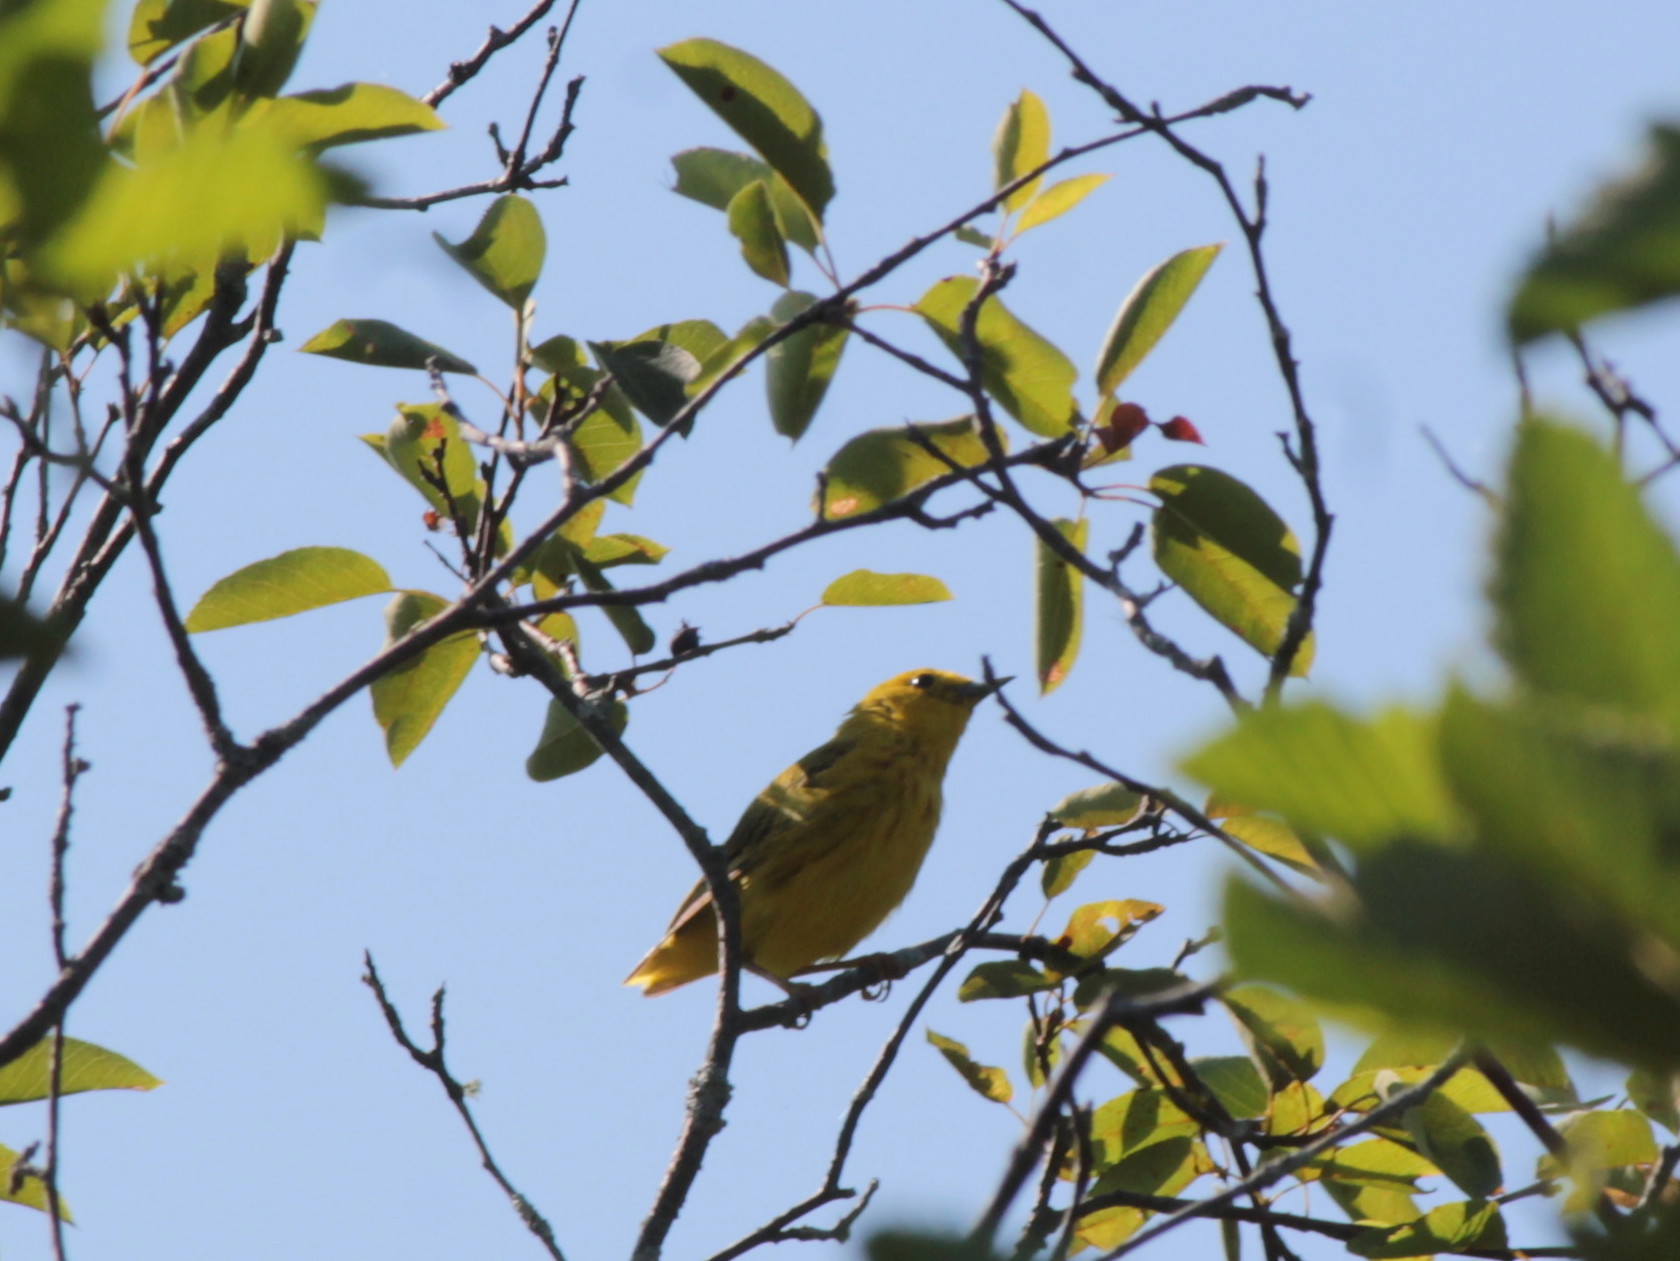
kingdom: Animalia
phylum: Chordata
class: Aves
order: Passeriformes
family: Parulidae
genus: Setophaga
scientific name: Setophaga petechia
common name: Yellow warbler
